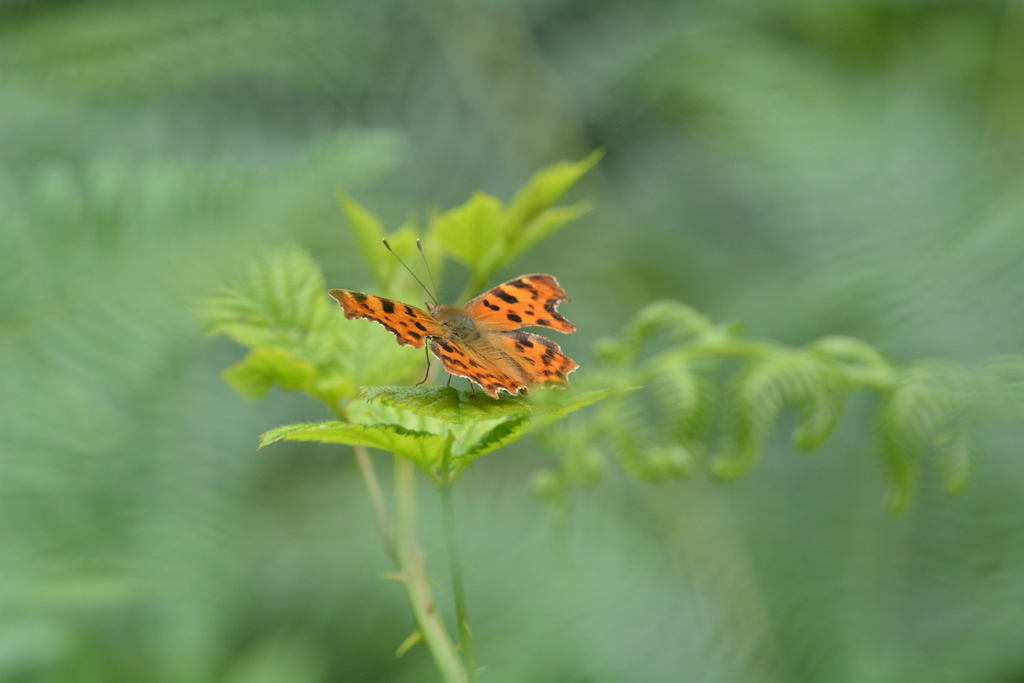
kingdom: Animalia
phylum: Arthropoda
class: Insecta
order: Lepidoptera
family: Nymphalidae
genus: Polygonia
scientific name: Polygonia c-album
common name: Comma
